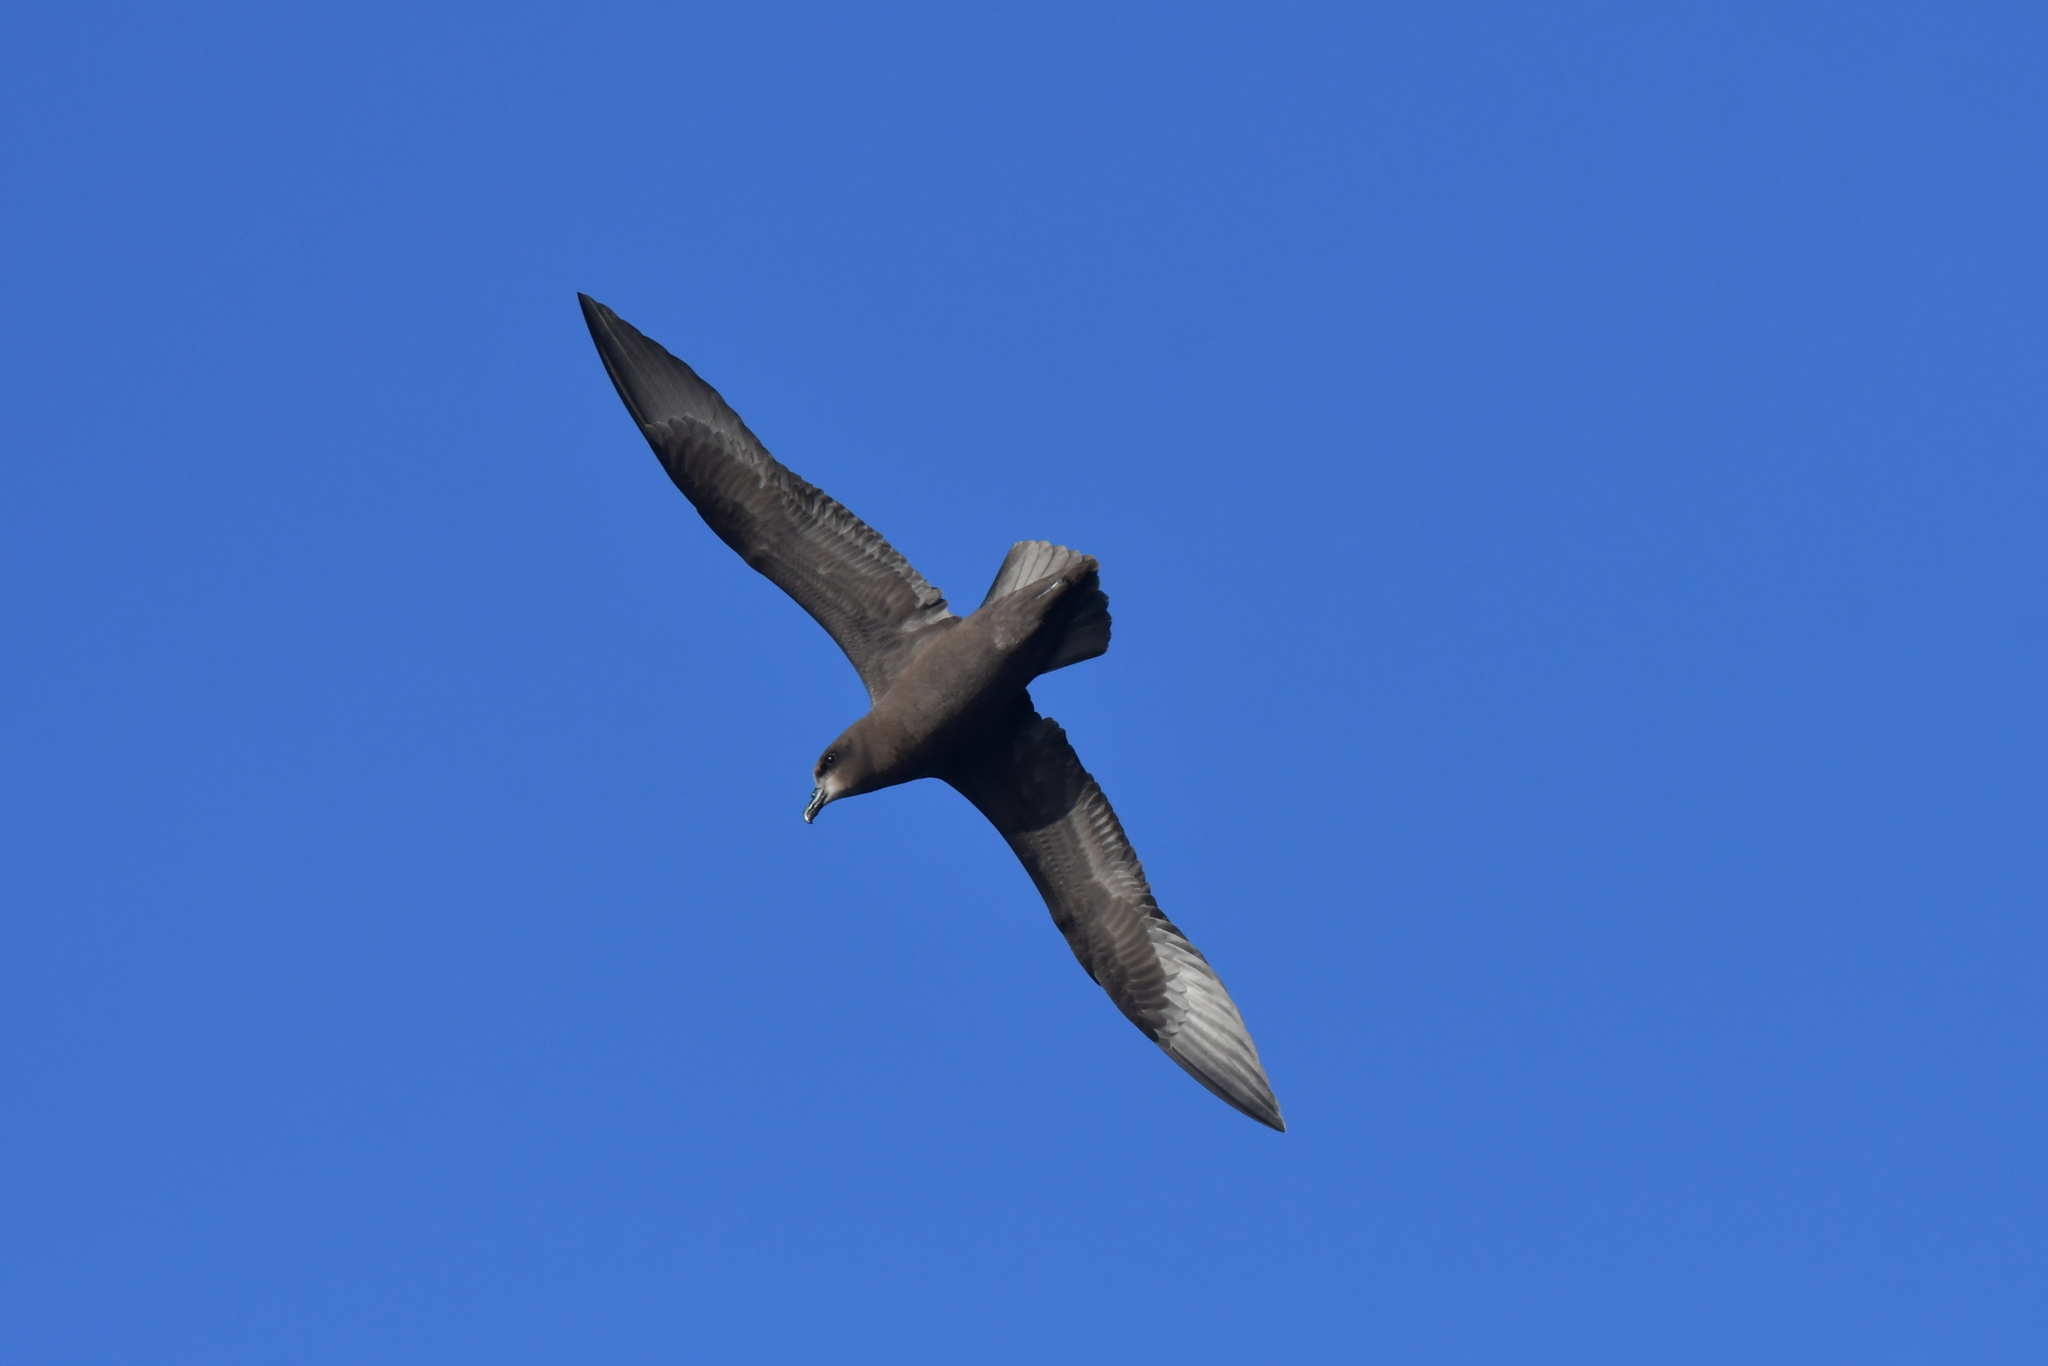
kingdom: Animalia
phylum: Chordata
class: Aves
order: Procellariiformes
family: Procellariidae
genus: Pterodroma
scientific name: Pterodroma macroptera
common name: Great-winged petrel
